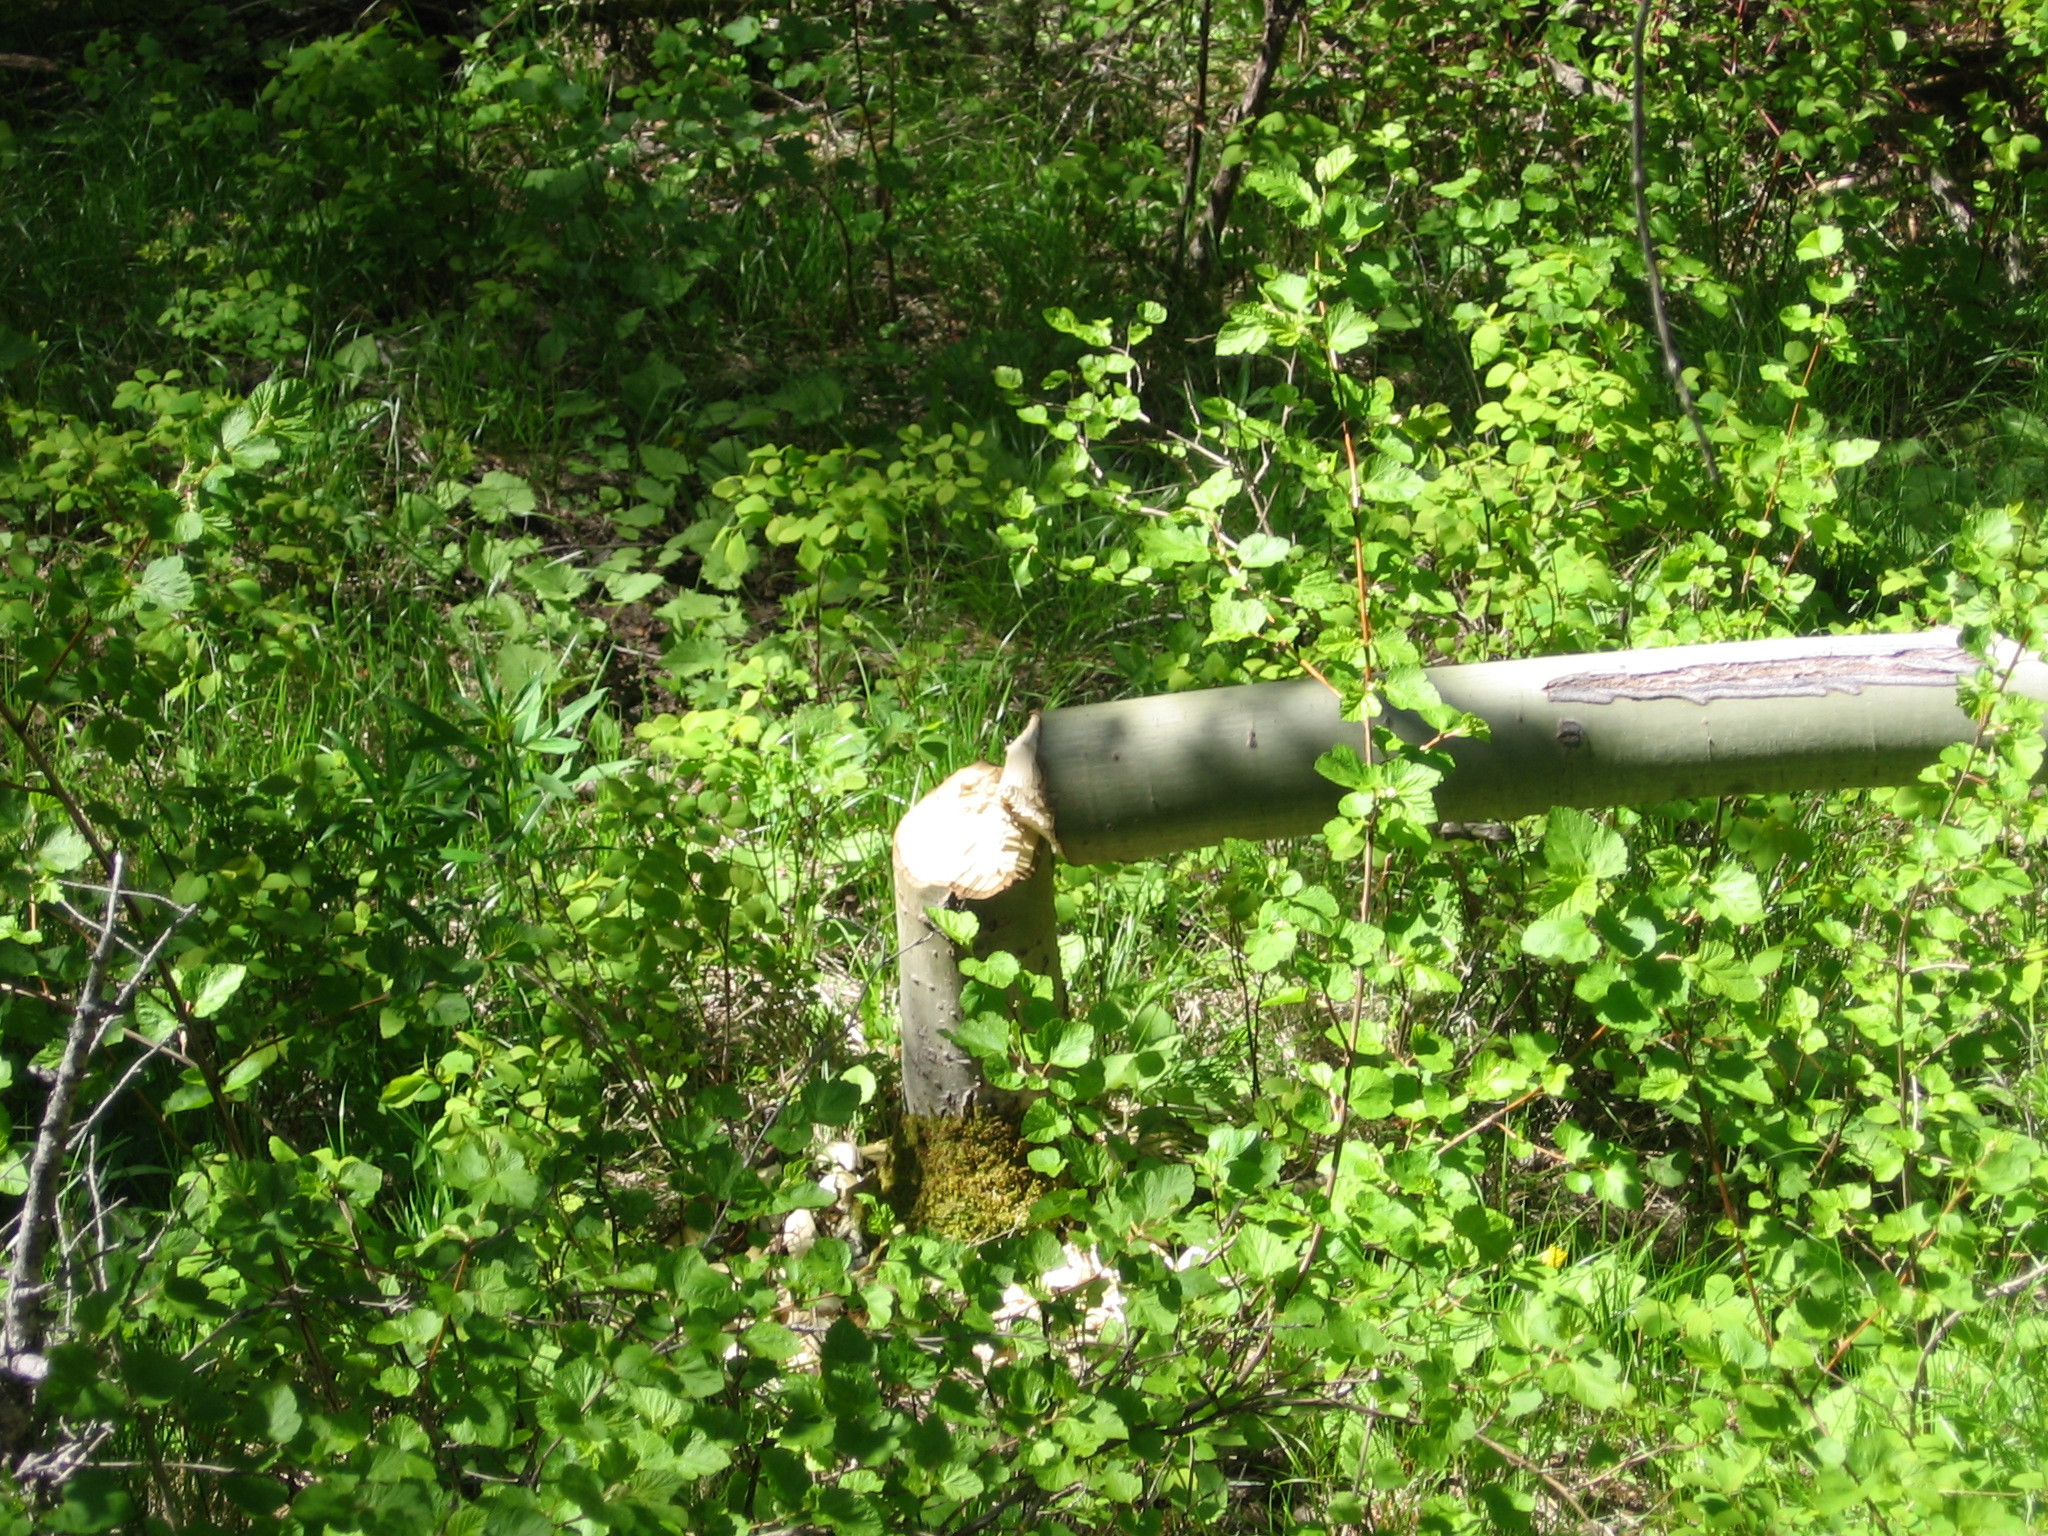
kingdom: Animalia
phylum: Chordata
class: Mammalia
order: Rodentia
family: Castoridae
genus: Castor
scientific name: Castor canadensis
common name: American beaver
